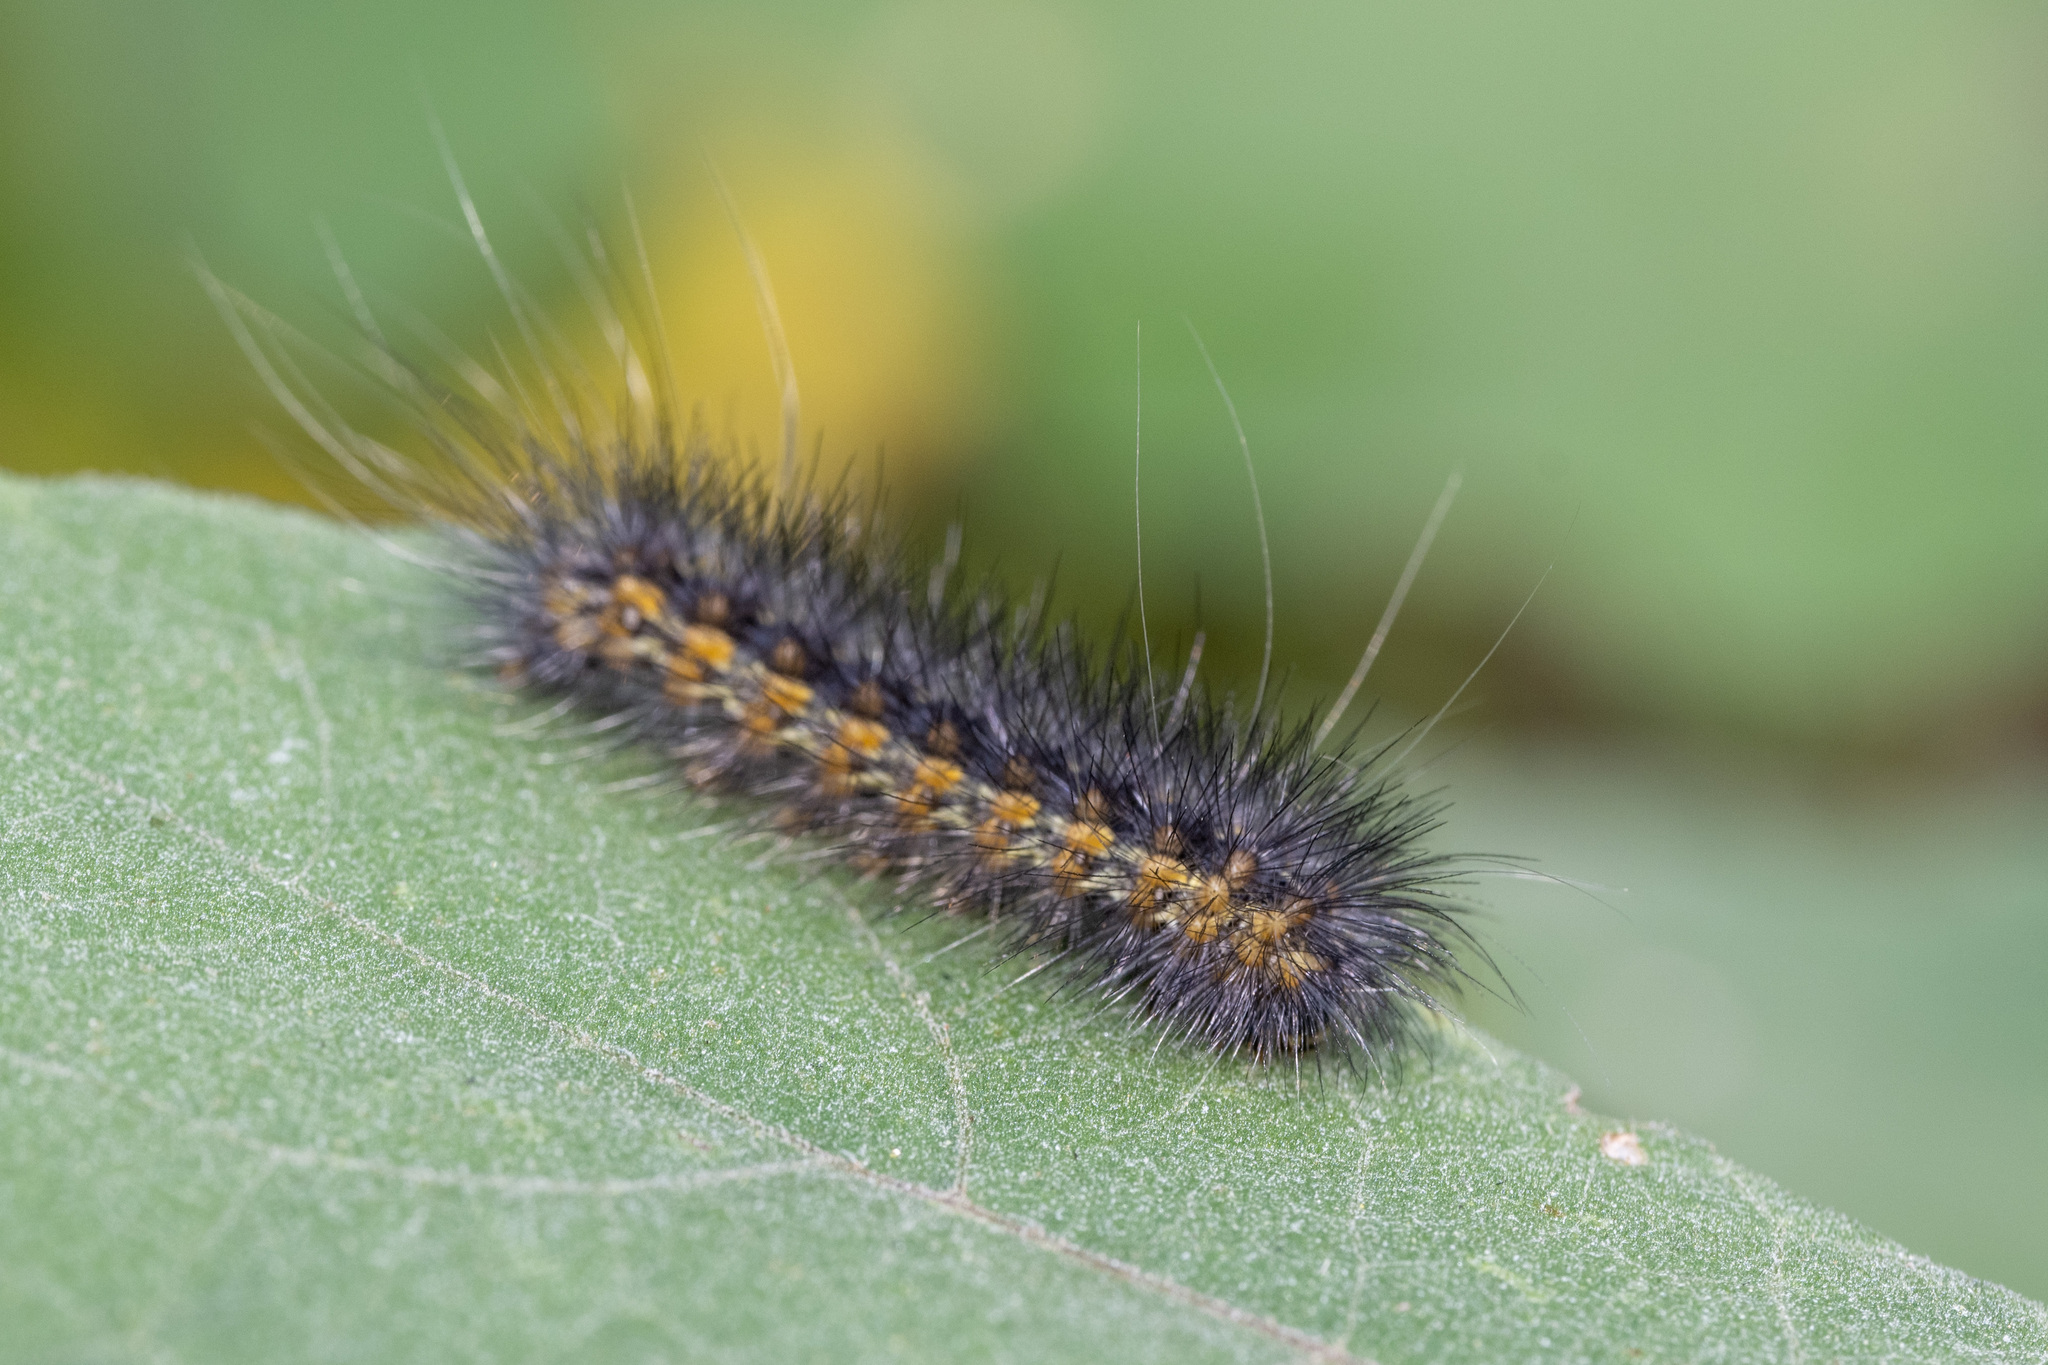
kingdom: Animalia
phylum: Arthropoda
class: Insecta
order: Lepidoptera
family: Erebidae
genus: Estigmene
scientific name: Estigmene acrea
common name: Salt marsh moth
